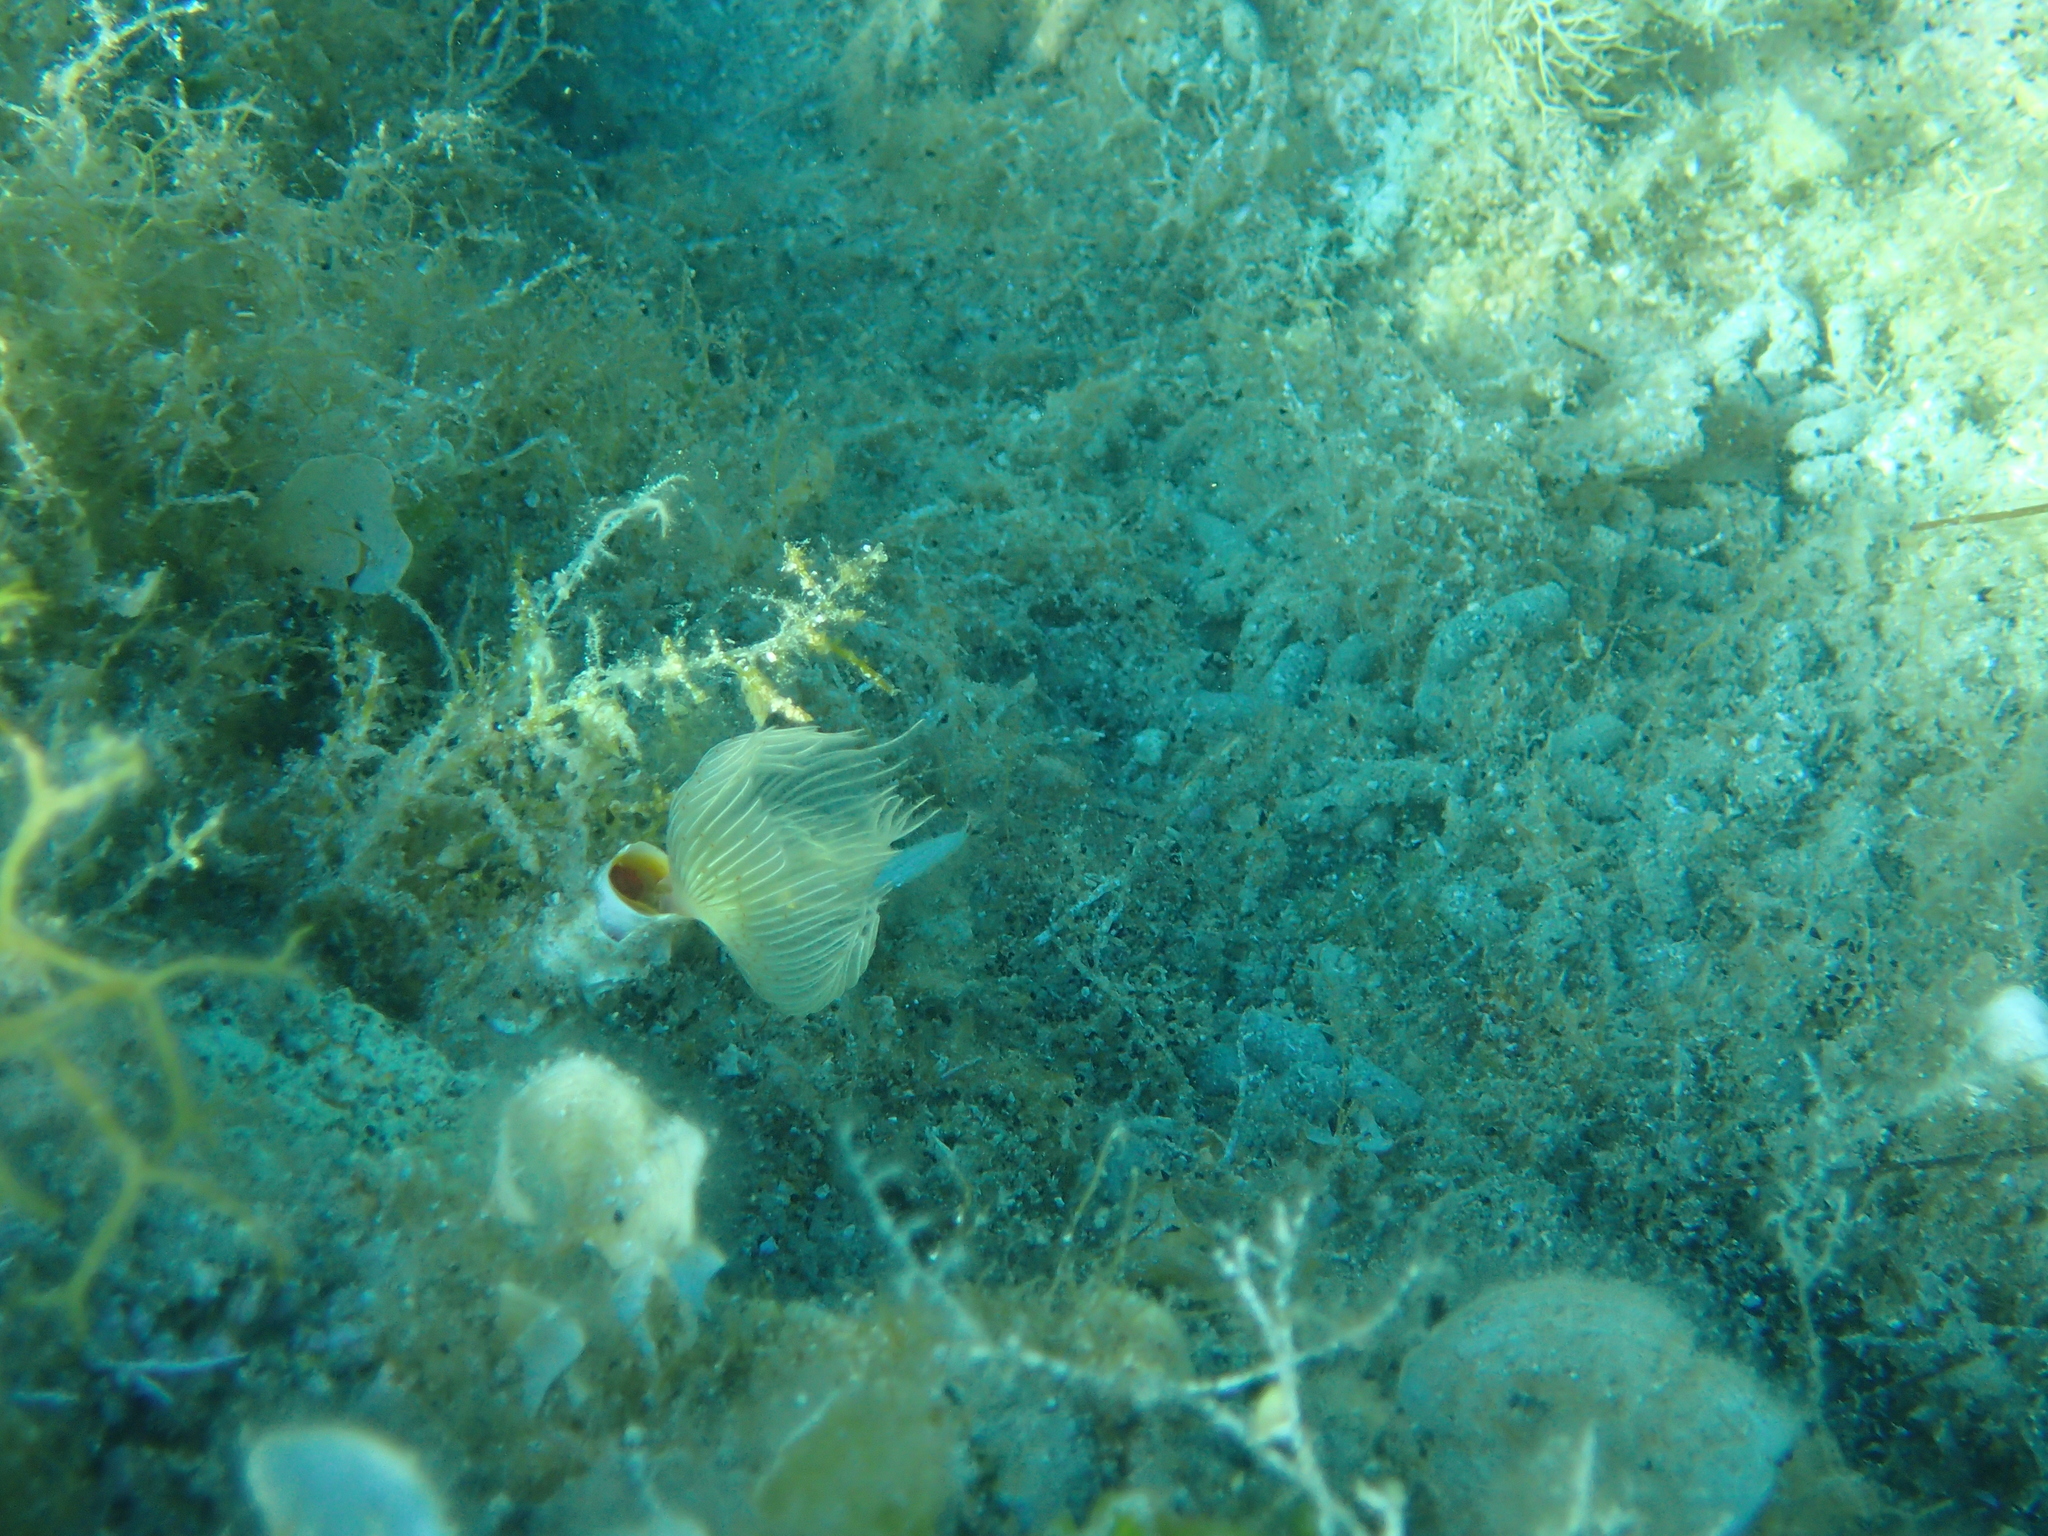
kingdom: Animalia
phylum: Annelida
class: Polychaeta
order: Sabellida
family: Serpulidae
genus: Protula
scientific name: Protula tubularia
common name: Red-spotted horseshoe
